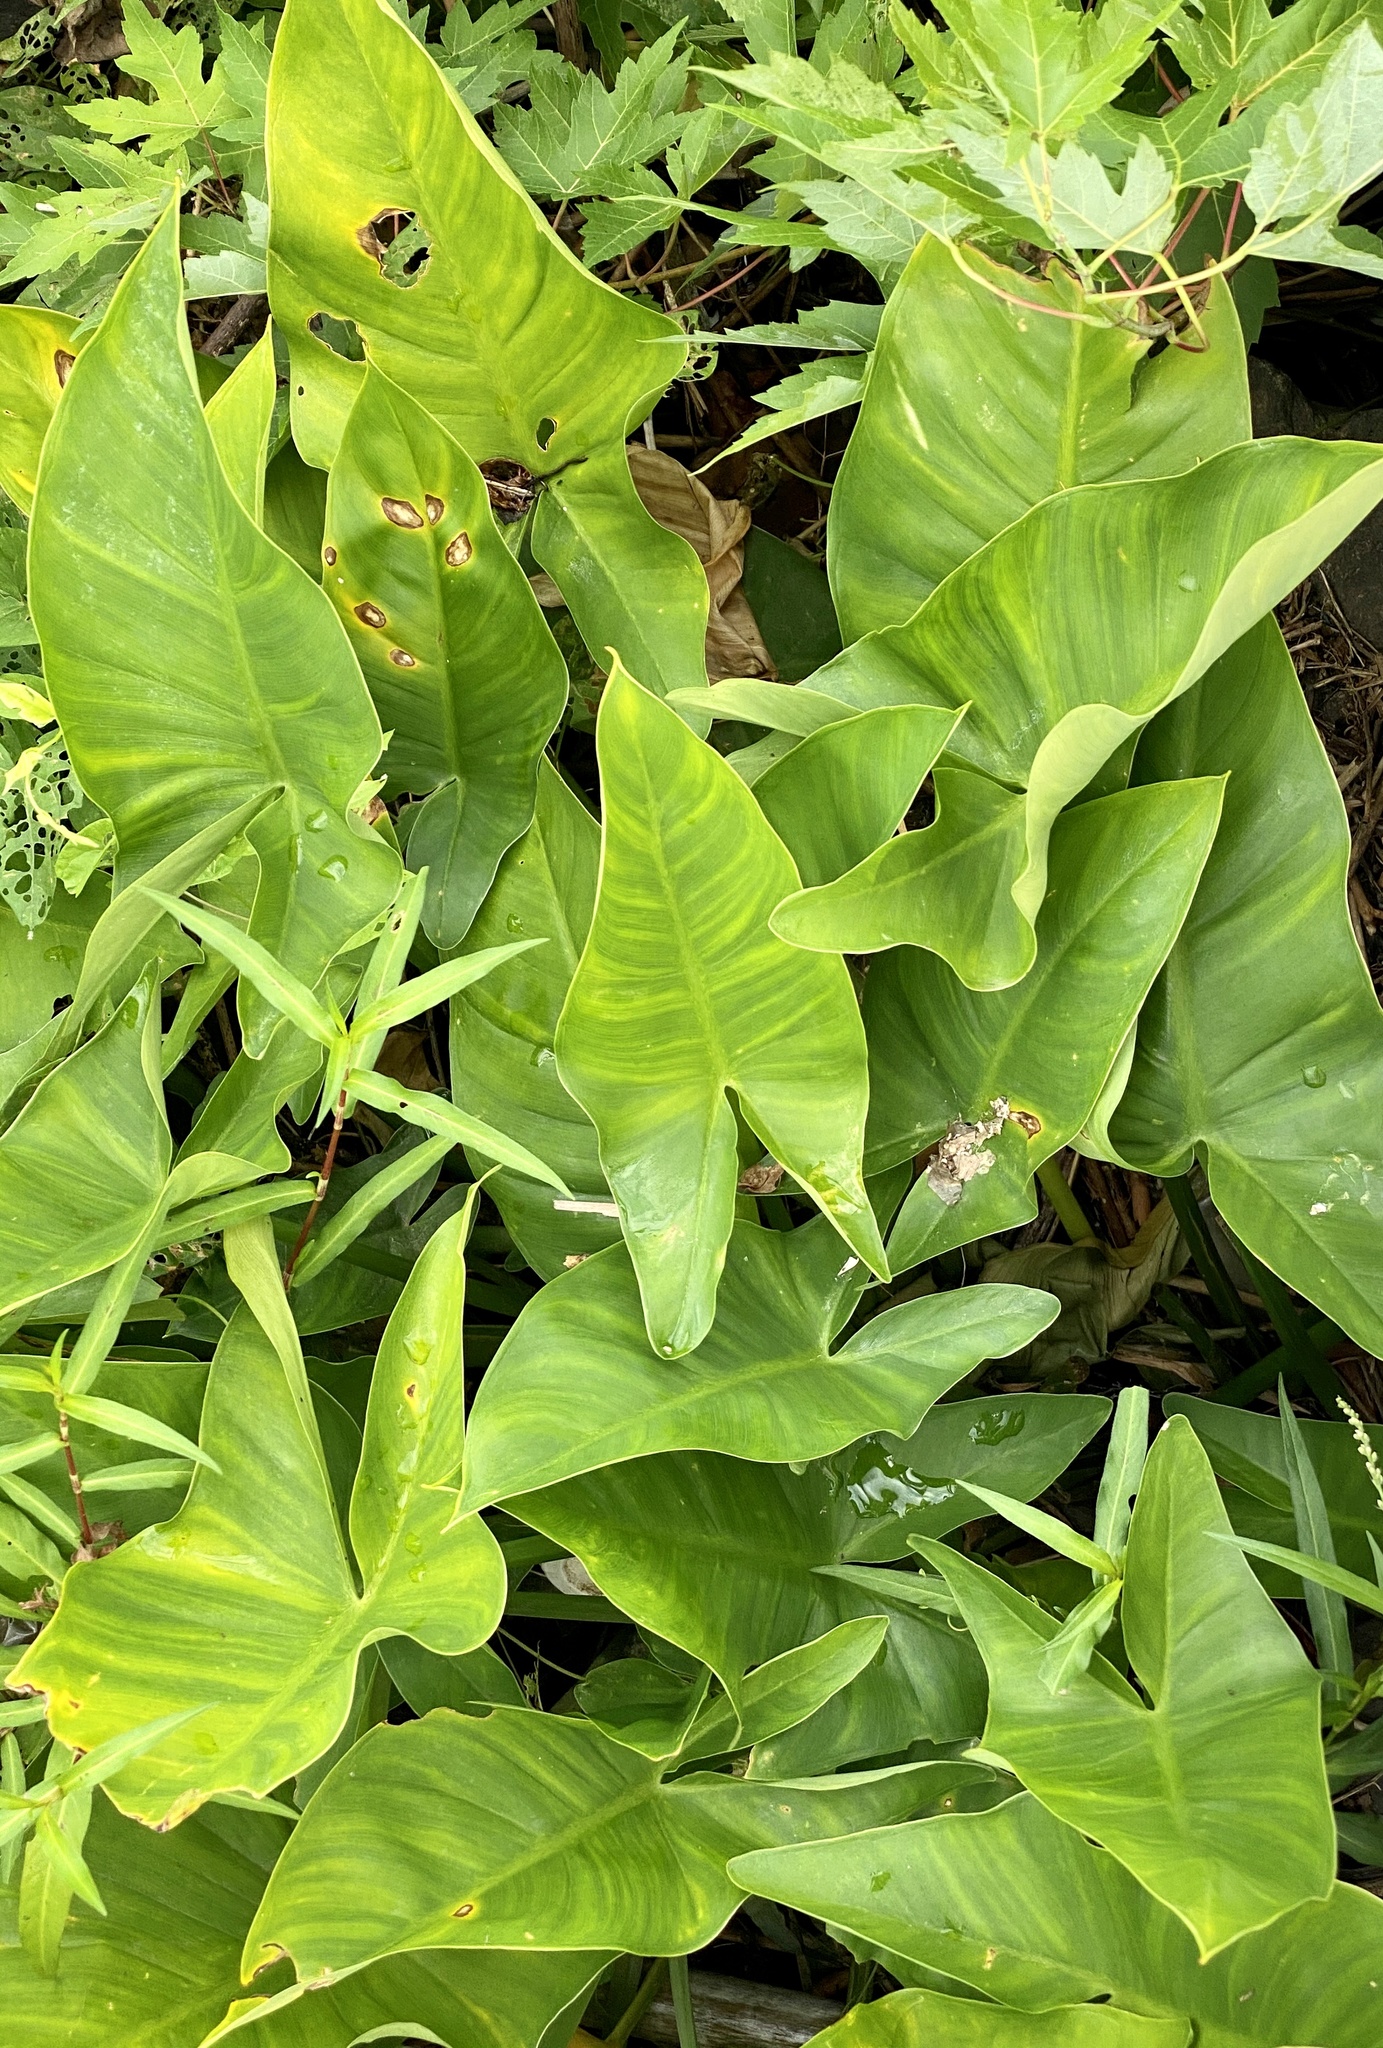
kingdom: Plantae
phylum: Tracheophyta
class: Liliopsida
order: Alismatales
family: Araceae
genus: Peltandra
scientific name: Peltandra virginica
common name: Arrow arum
